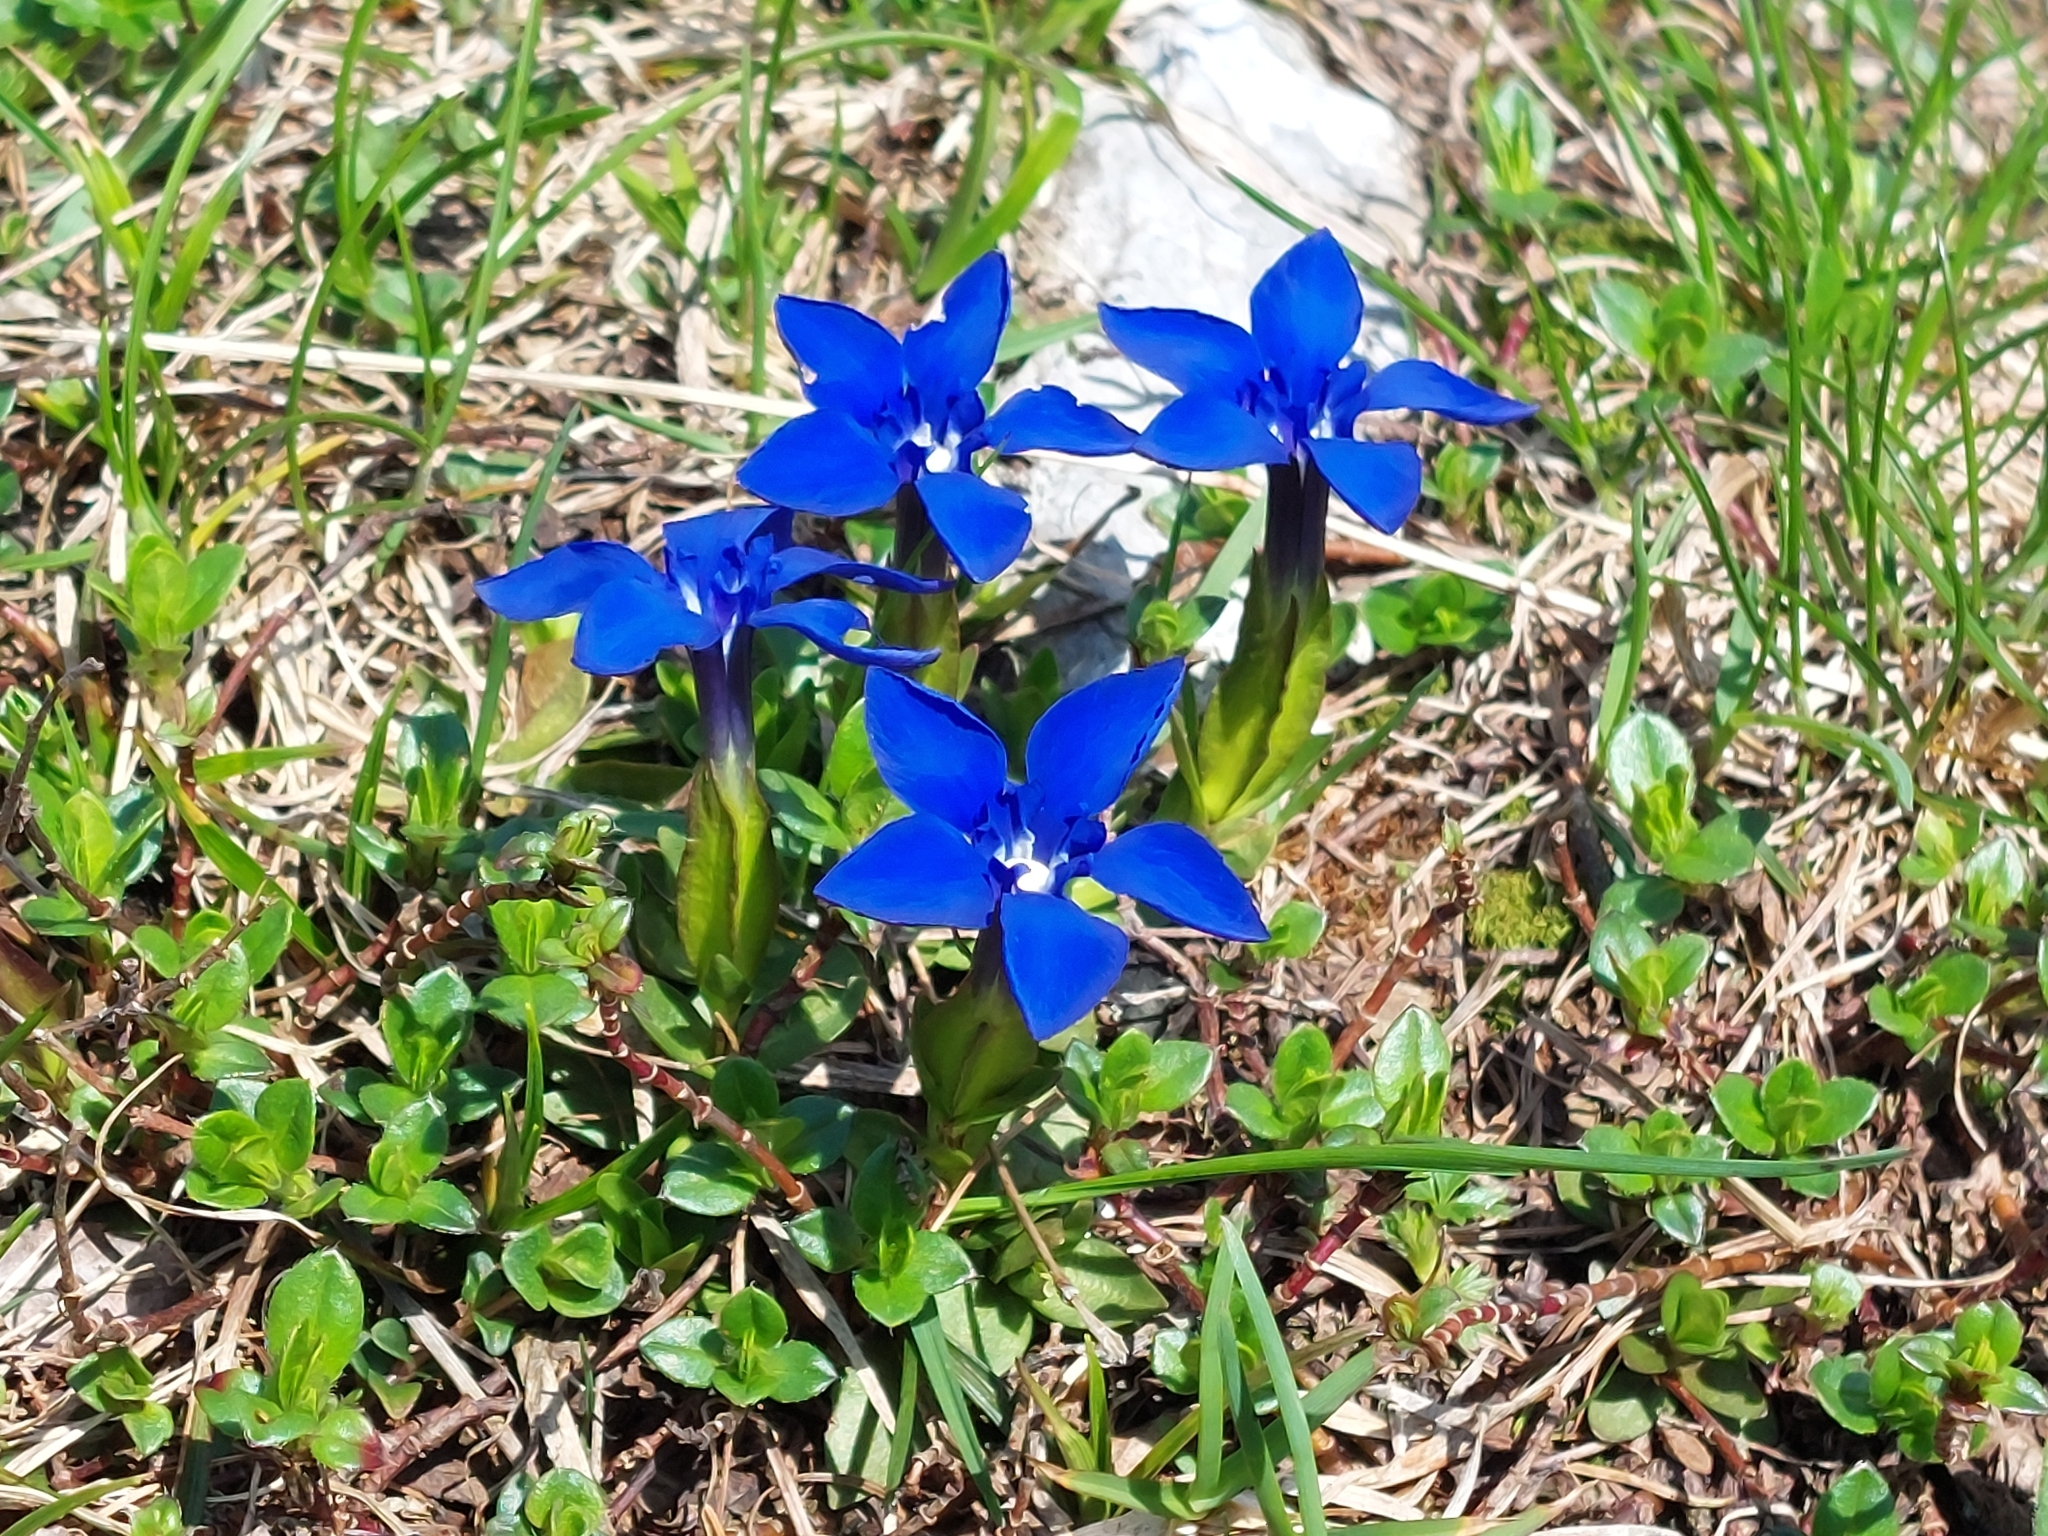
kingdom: Plantae
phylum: Tracheophyta
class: Magnoliopsida
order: Gentianales
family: Gentianaceae
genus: Gentiana
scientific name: Gentiana verna
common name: Spring gentian
